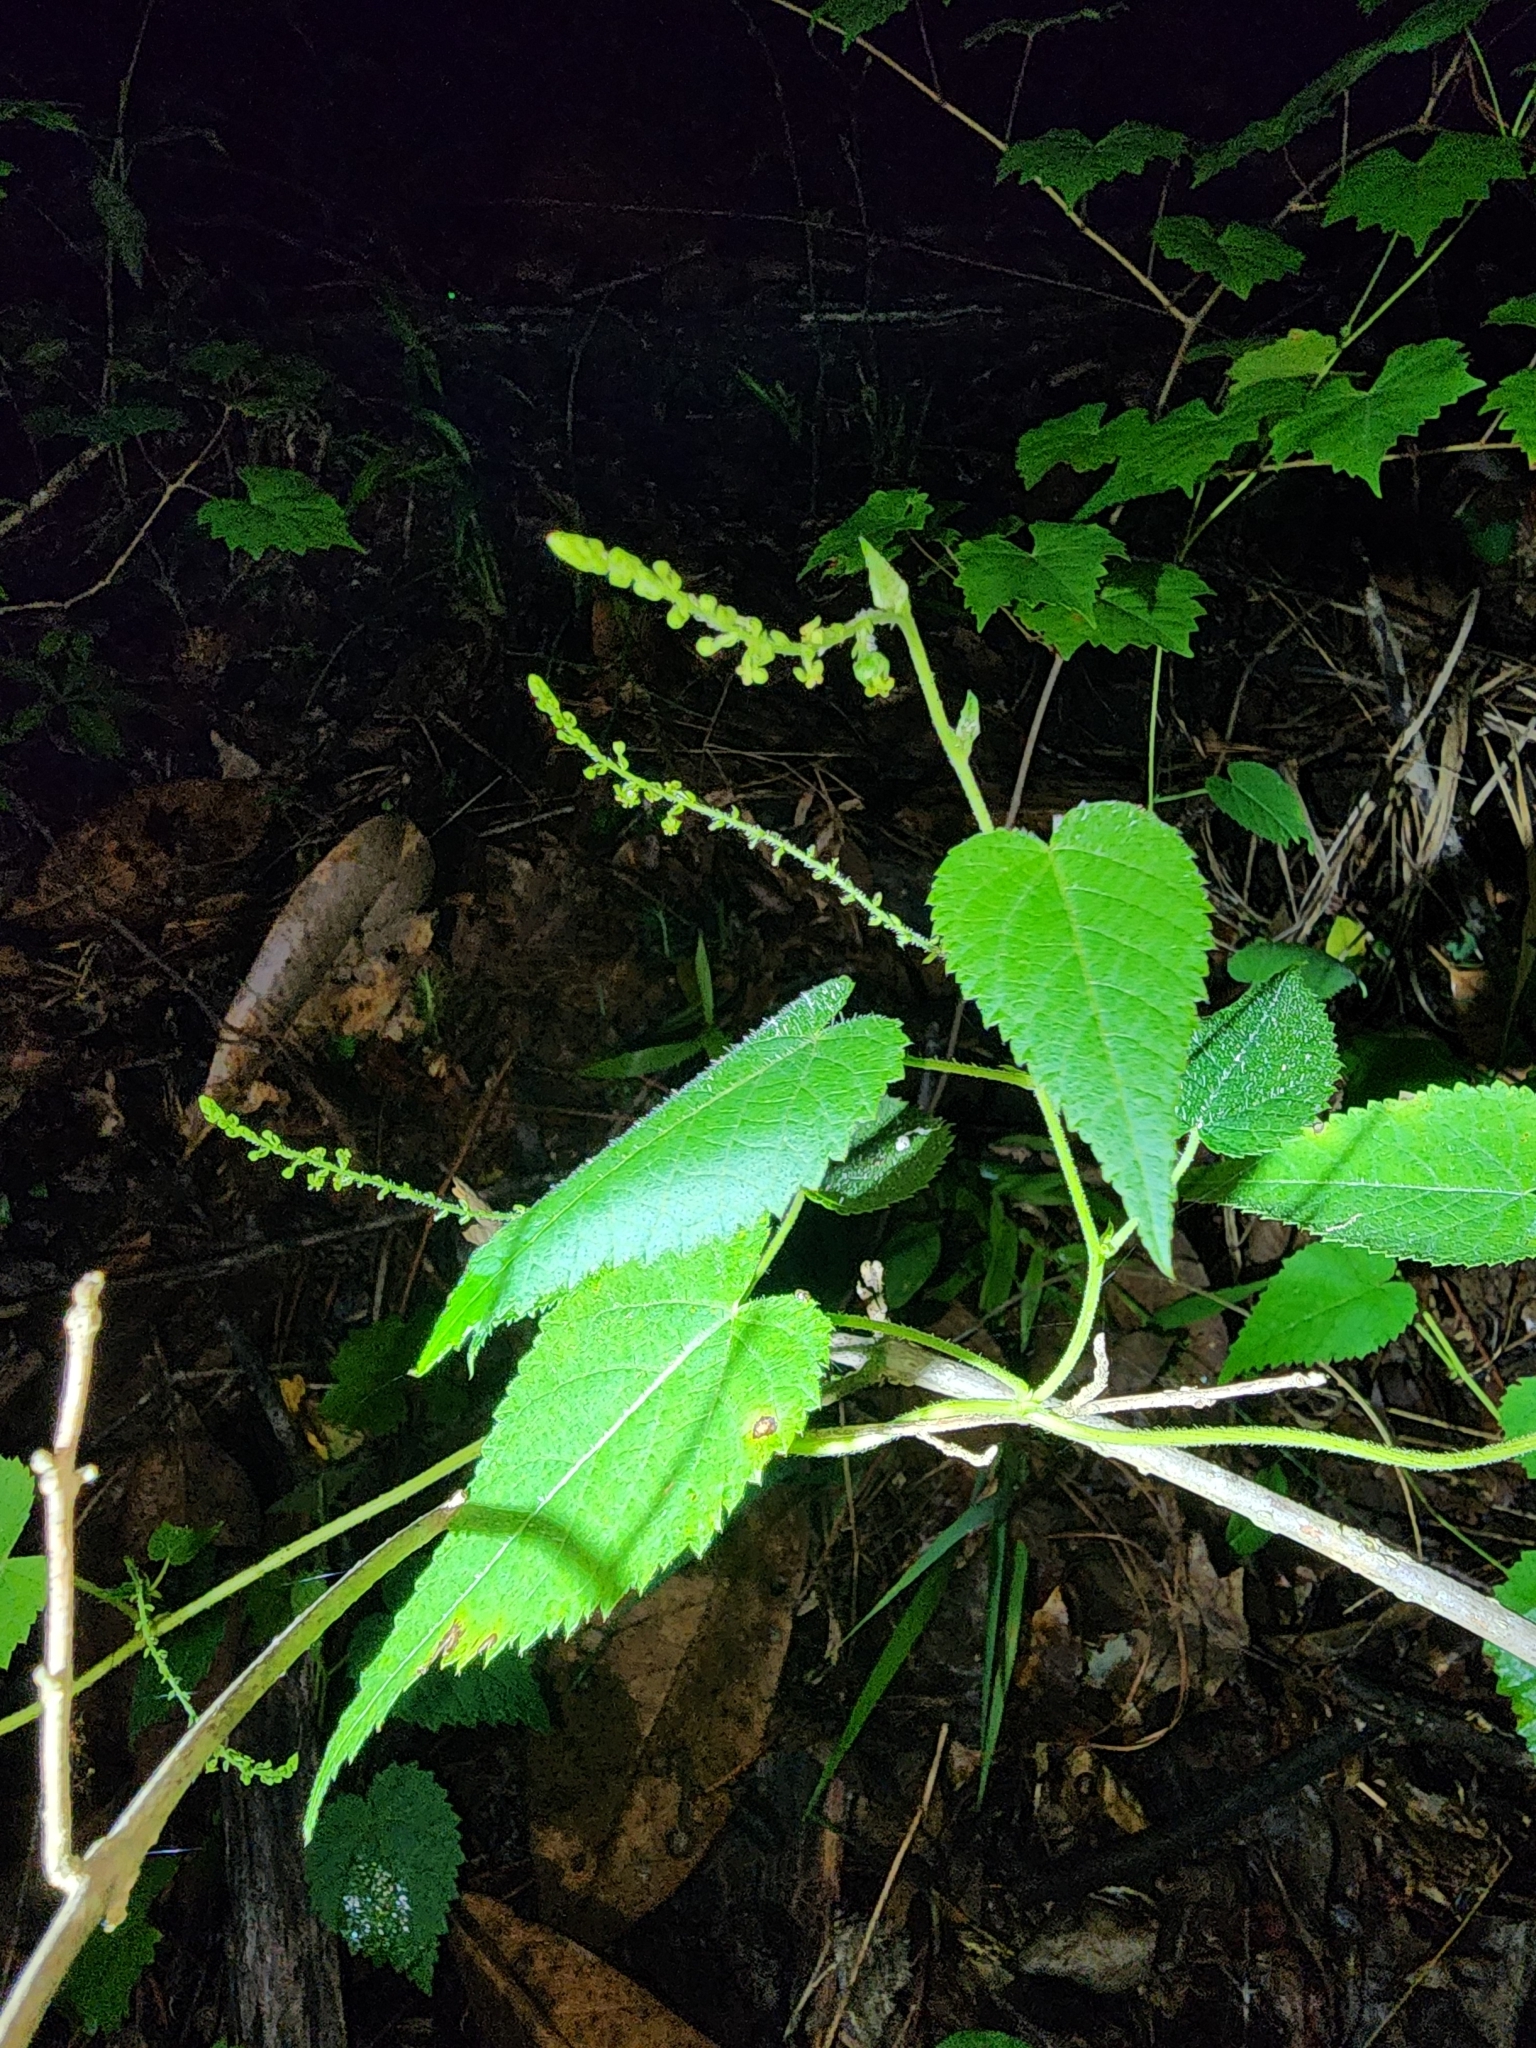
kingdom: Plantae
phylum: Tracheophyta
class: Magnoliopsida
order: Malpighiales
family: Euphorbiaceae
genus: Tragia
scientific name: Tragia cordata
